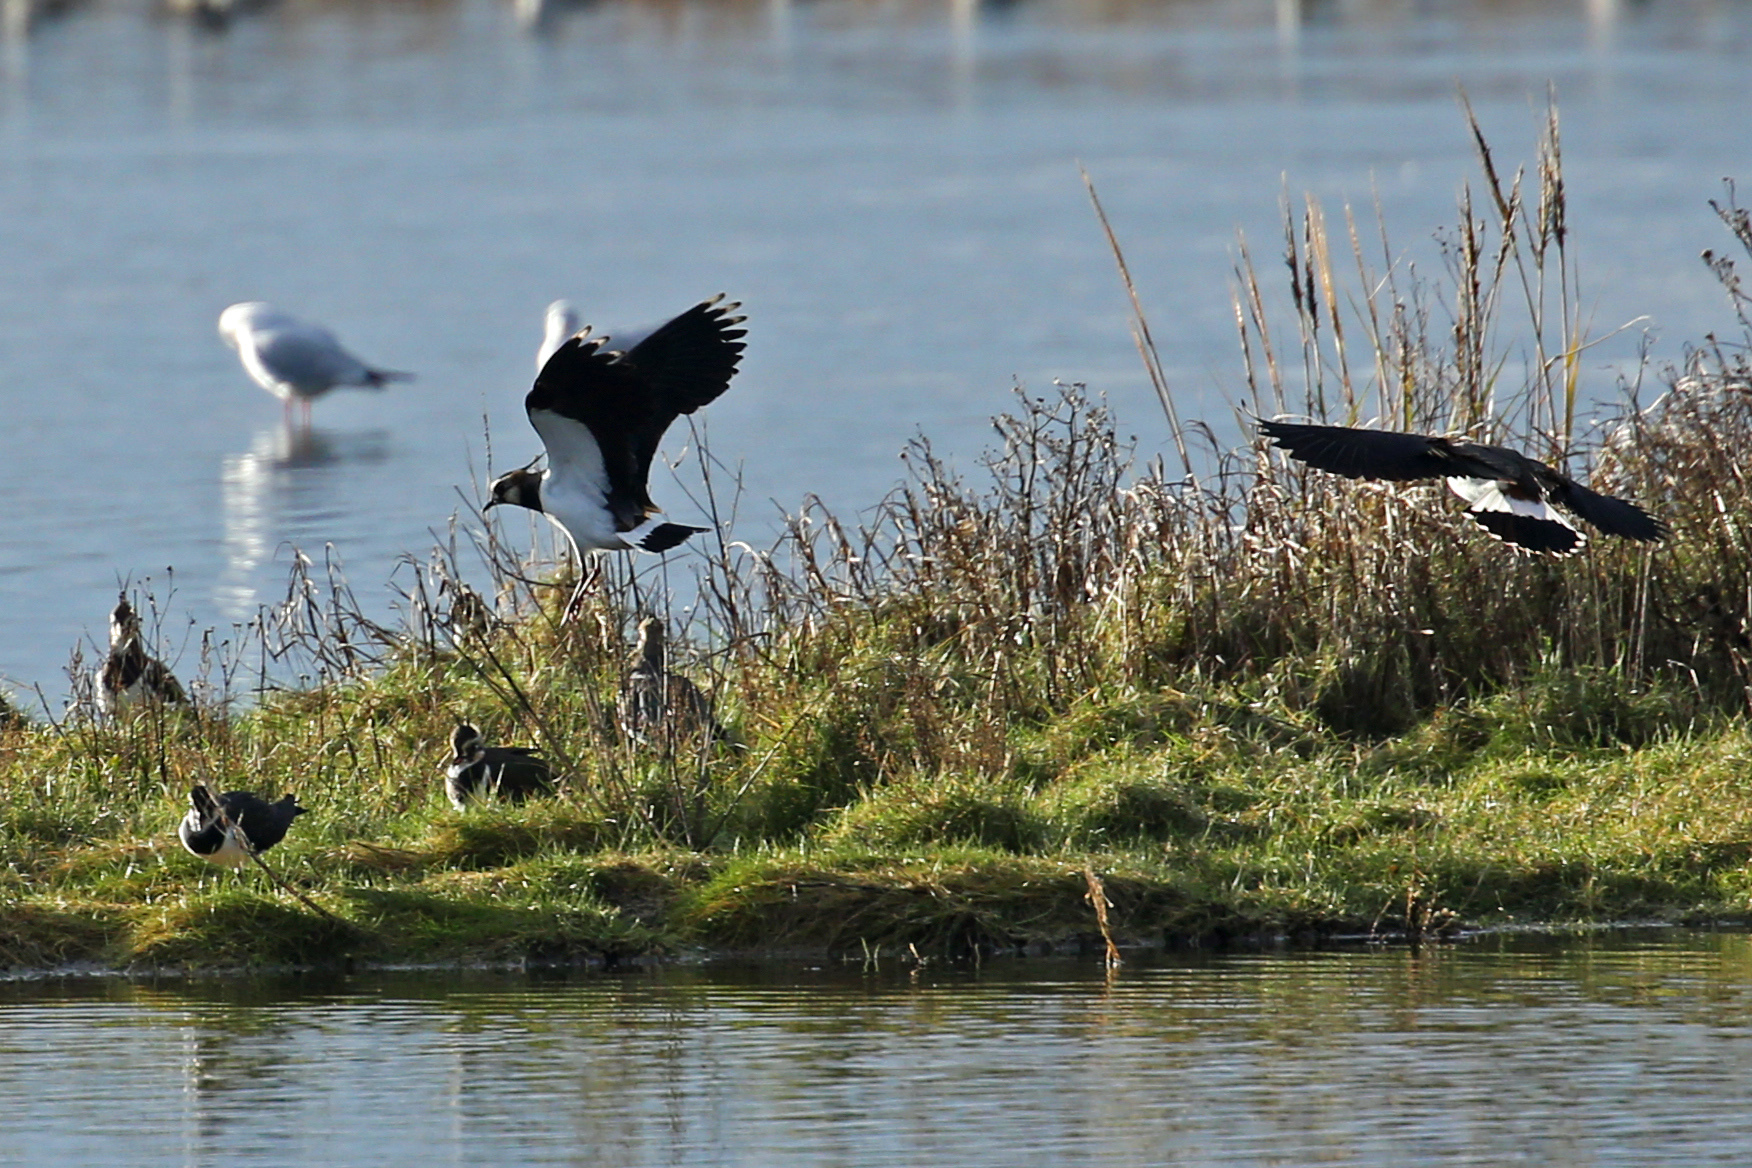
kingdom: Animalia
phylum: Chordata
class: Aves
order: Charadriiformes
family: Charadriidae
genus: Vanellus
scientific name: Vanellus vanellus
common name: Northern lapwing
